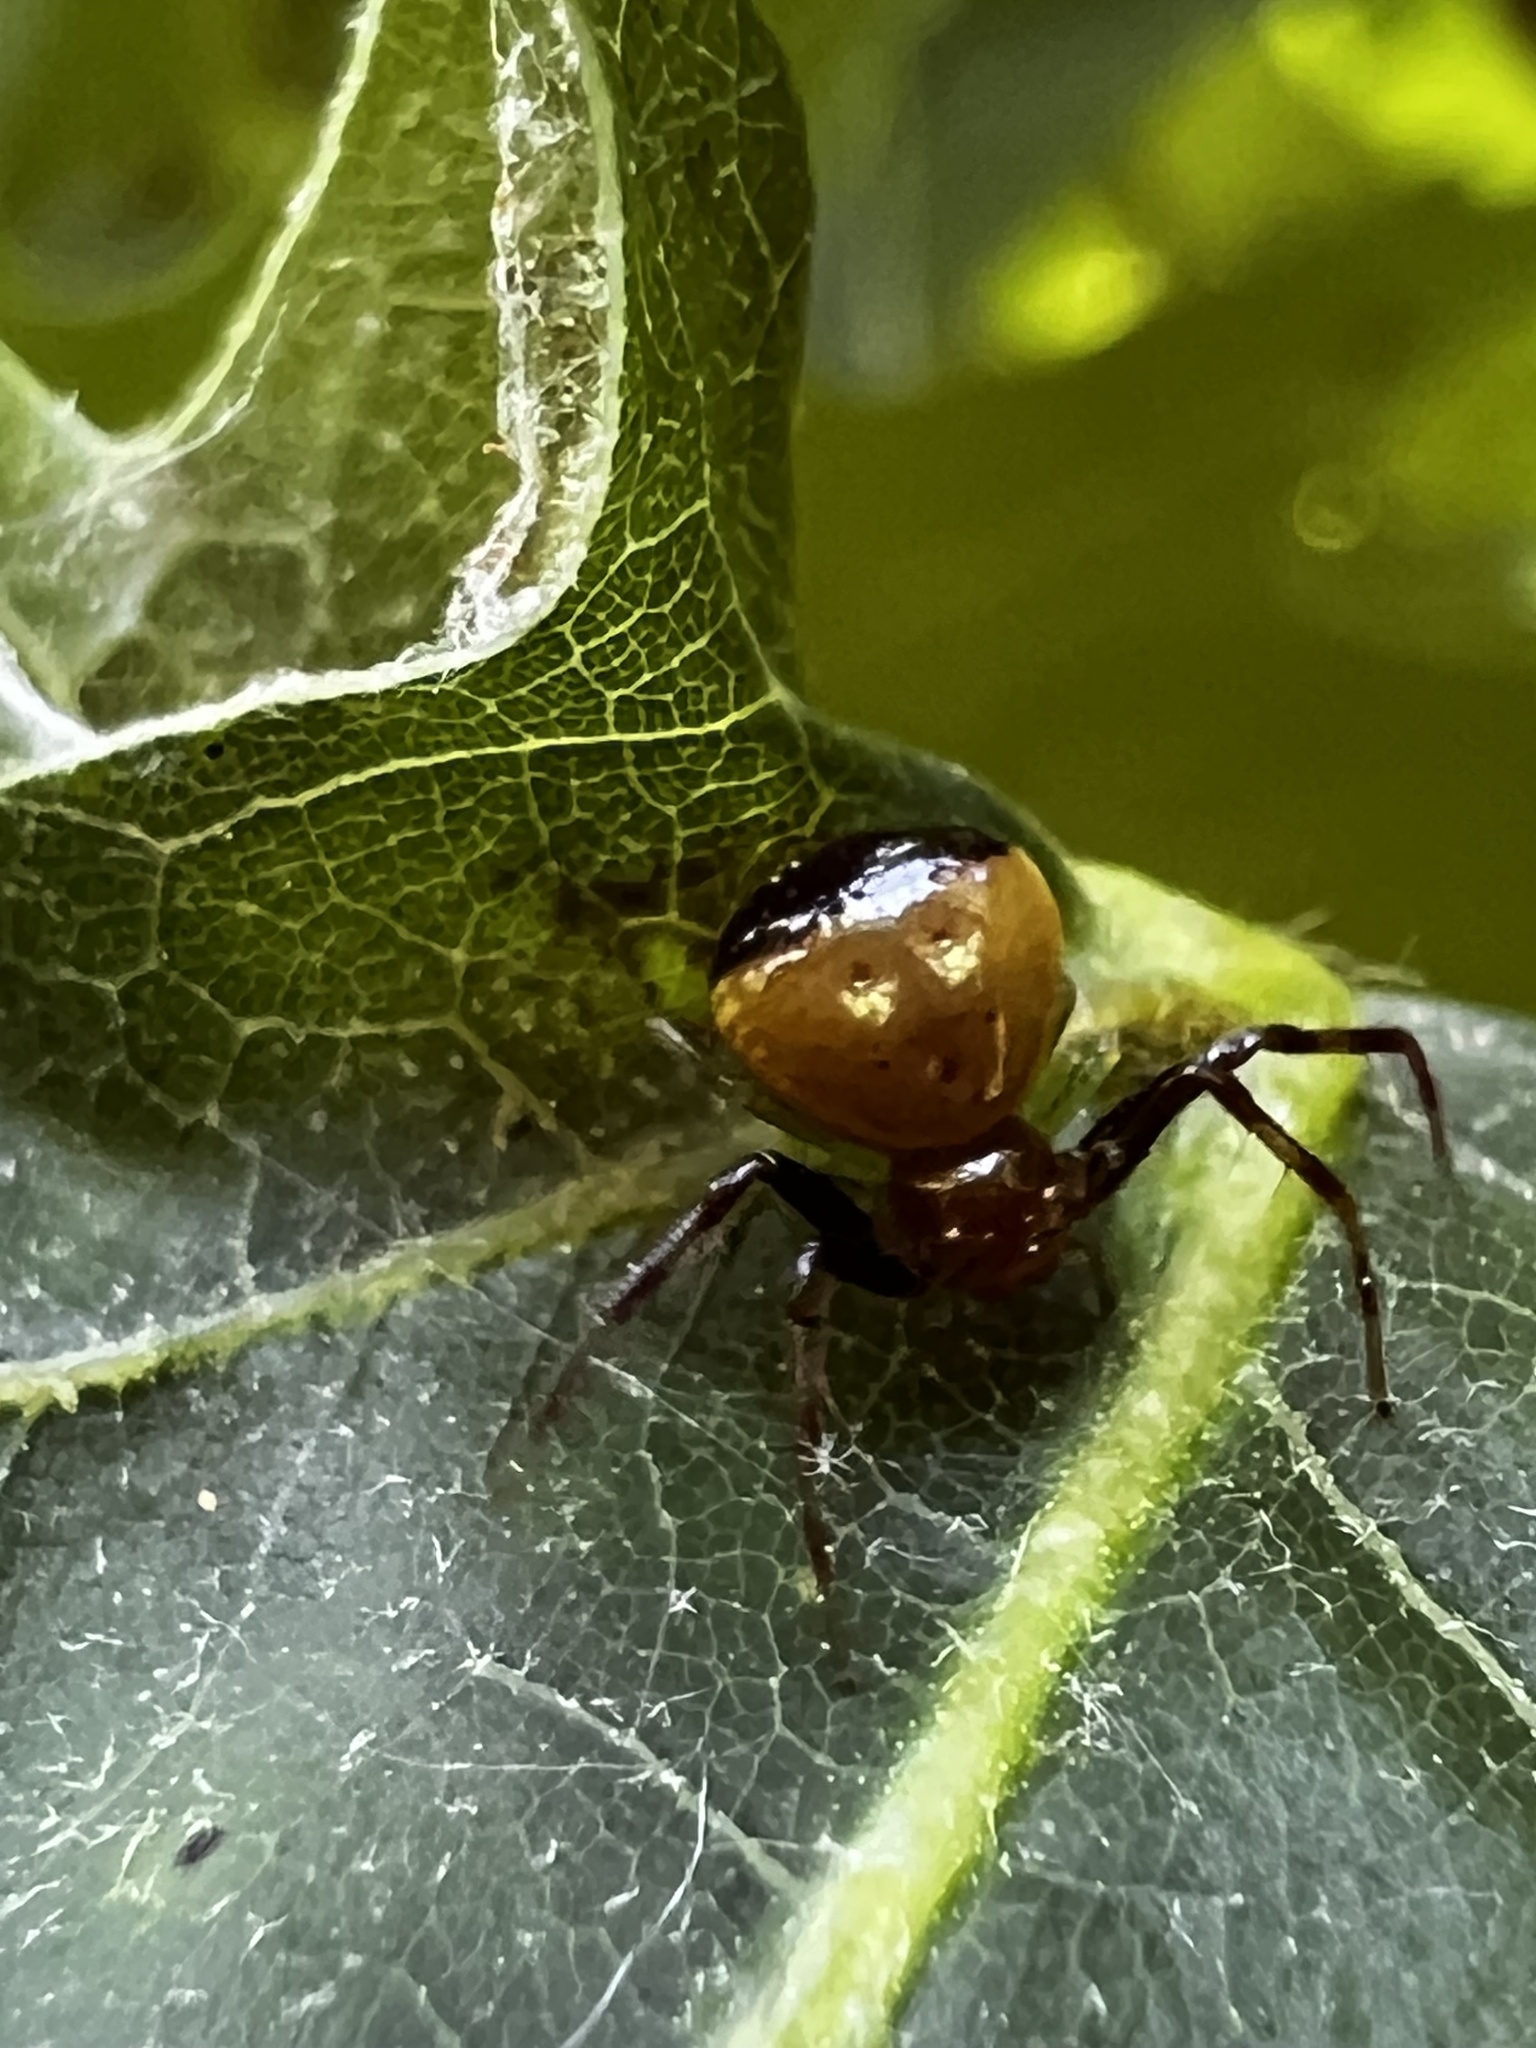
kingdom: Animalia
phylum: Arthropoda
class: Arachnida
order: Araneae
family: Thomisidae
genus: Synema
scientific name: Synema parvulum
